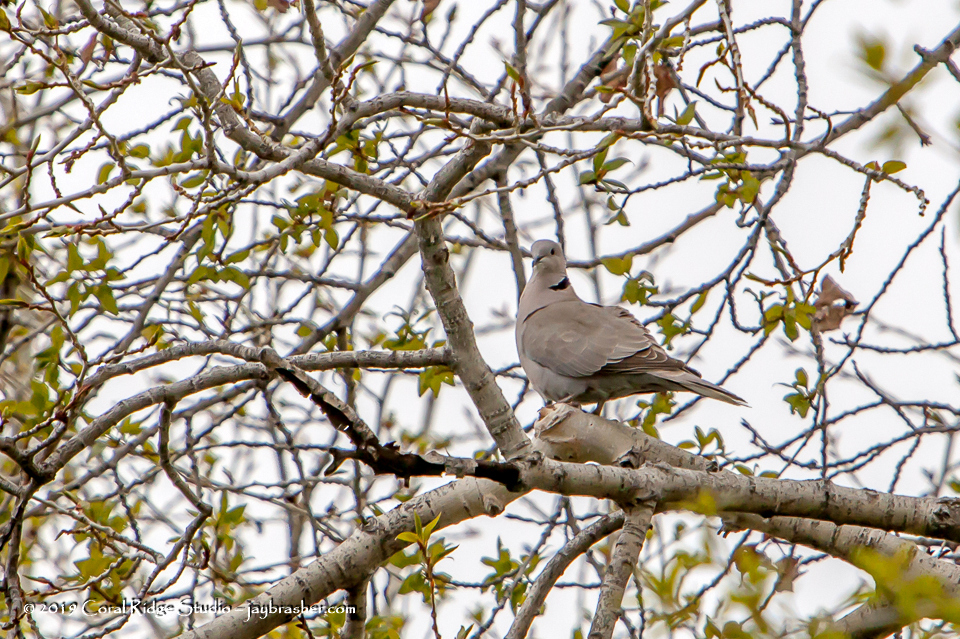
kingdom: Animalia
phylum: Chordata
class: Aves
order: Columbiformes
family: Columbidae
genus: Streptopelia
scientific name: Streptopelia decaocto
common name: Eurasian collared dove
